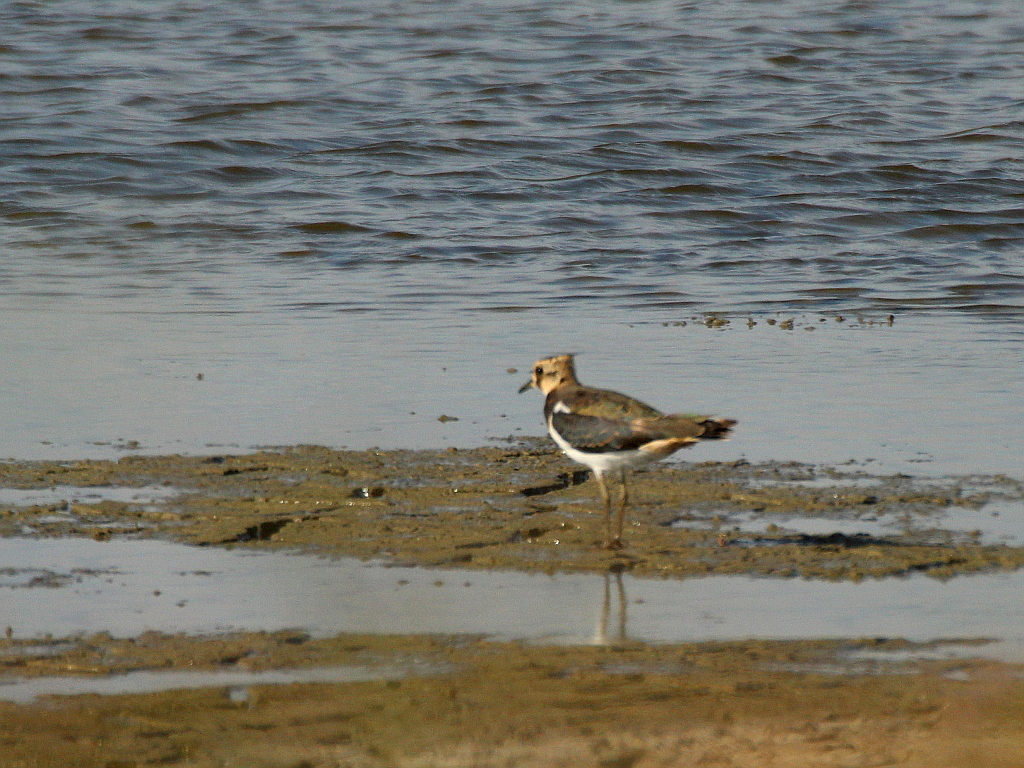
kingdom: Animalia
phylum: Chordata
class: Aves
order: Charadriiformes
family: Charadriidae
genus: Vanellus
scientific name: Vanellus vanellus
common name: Northern lapwing
